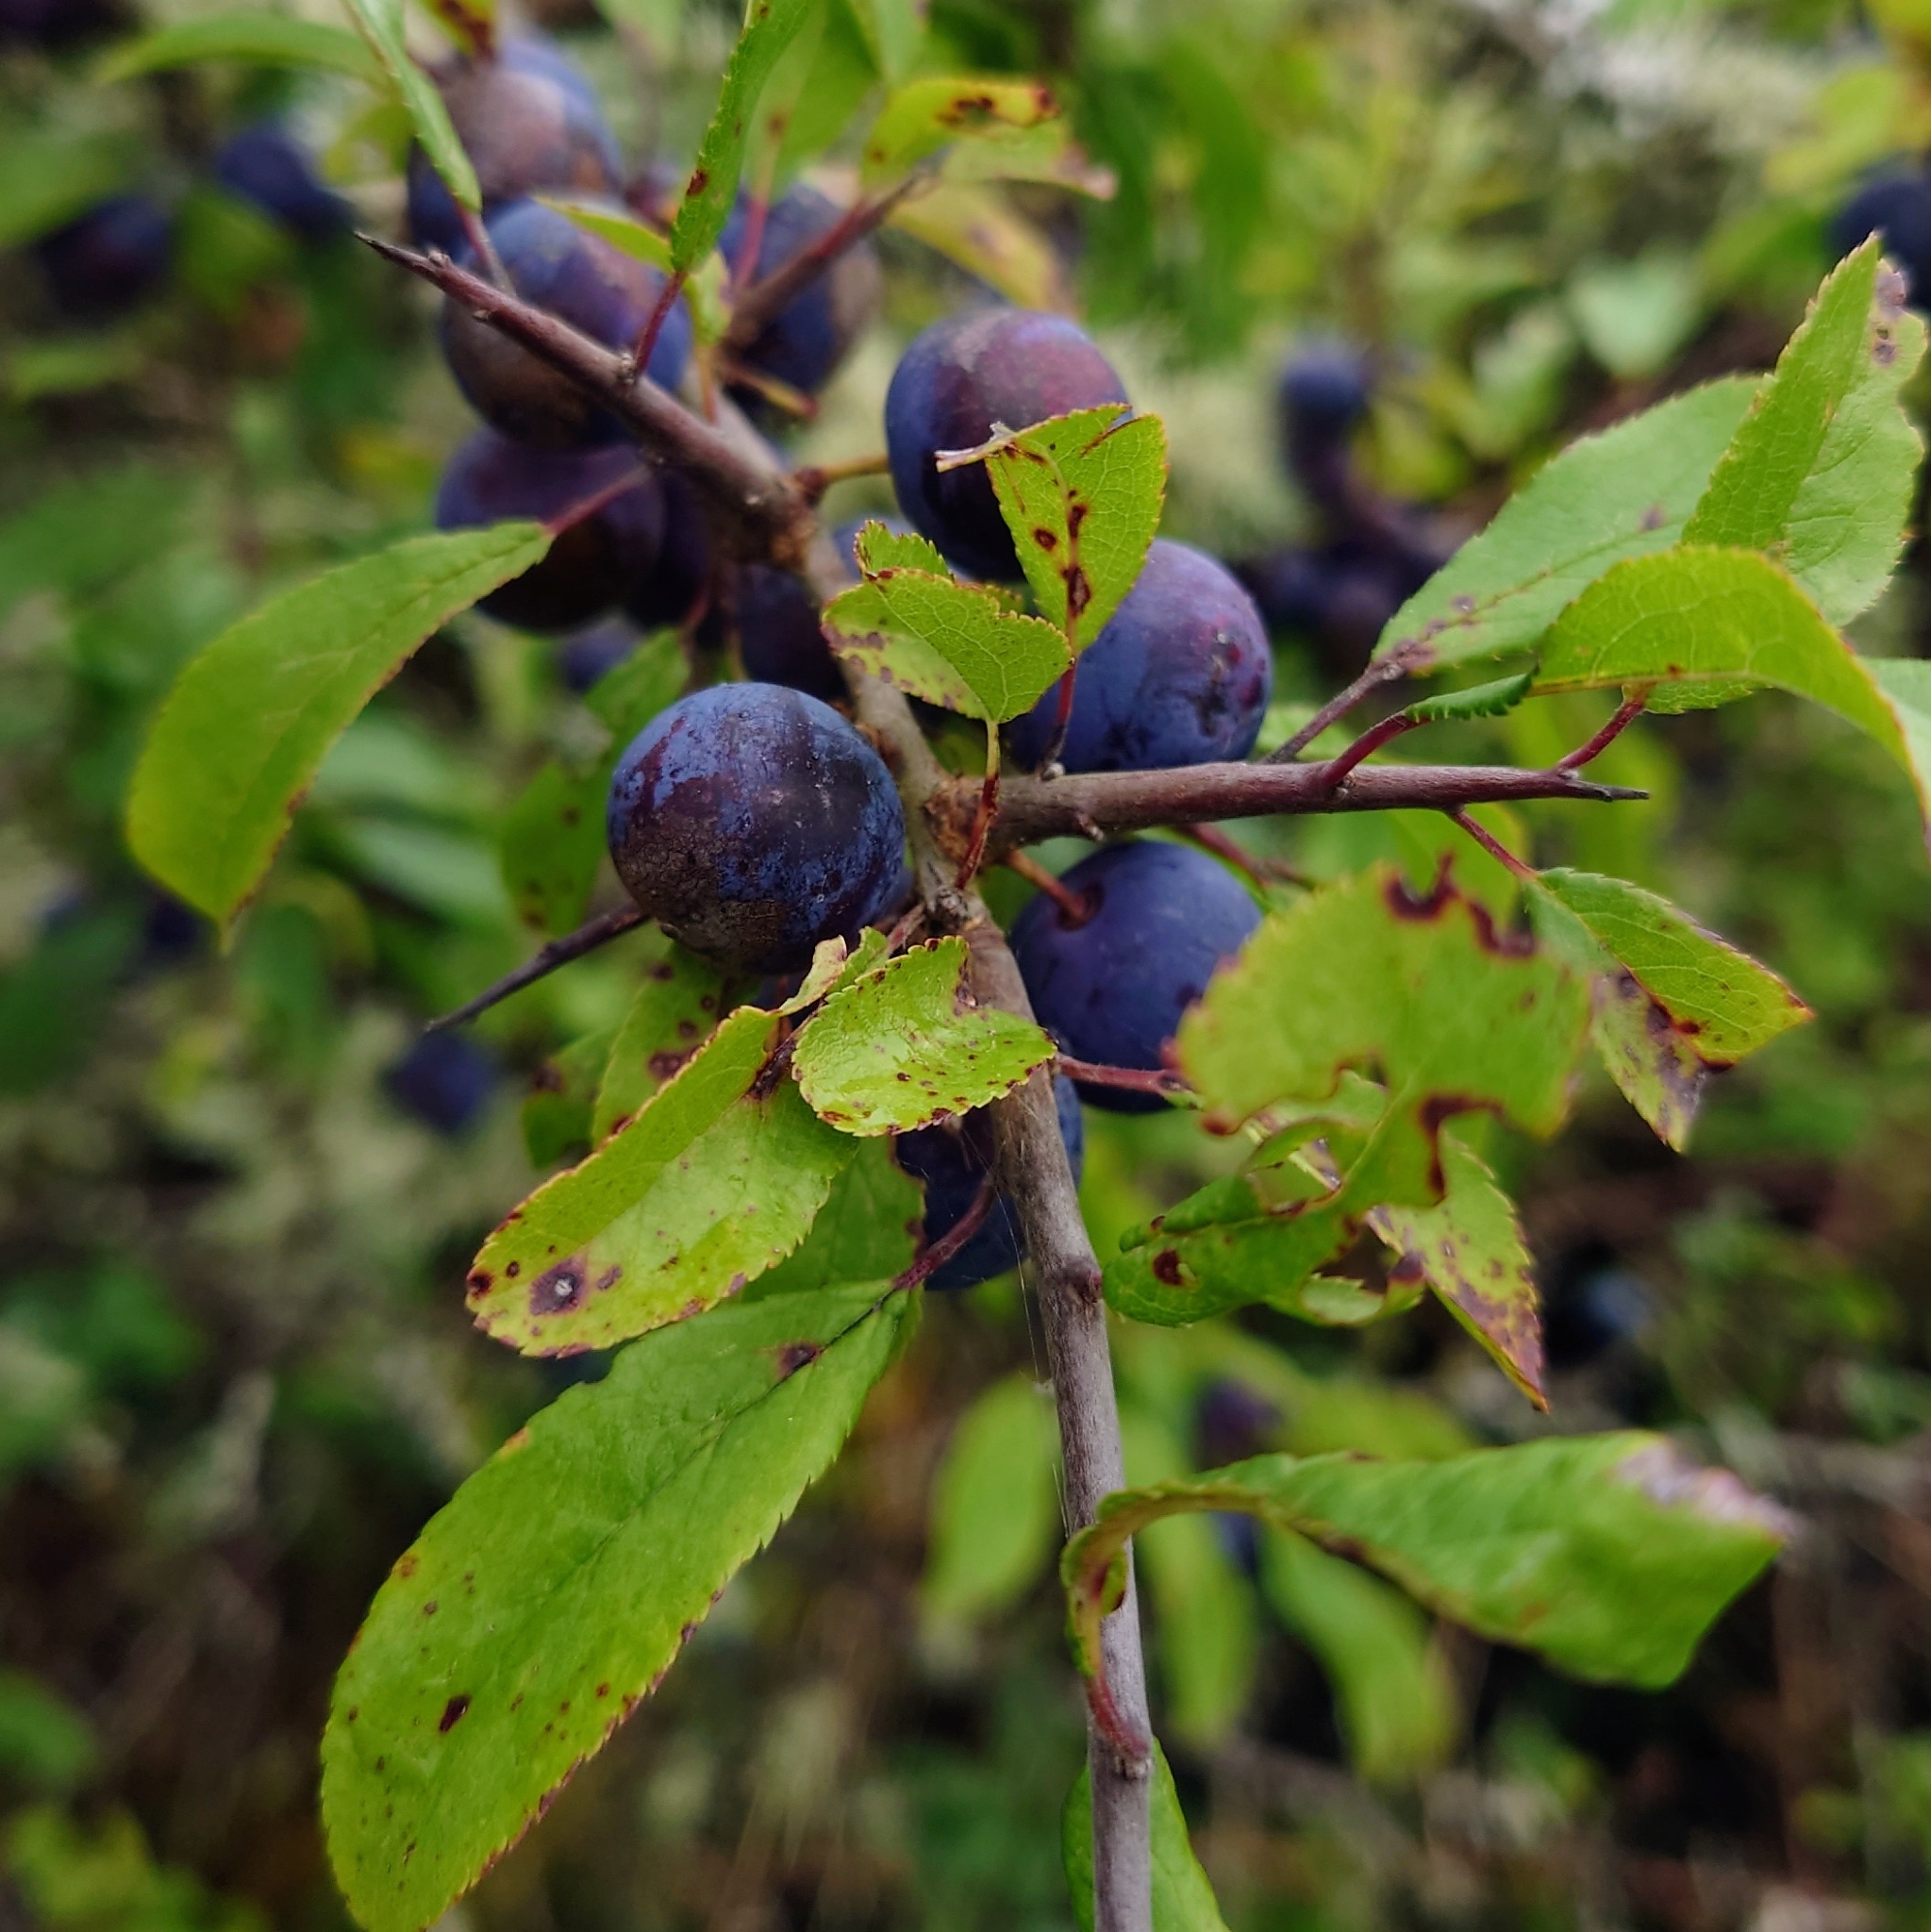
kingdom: Plantae
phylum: Tracheophyta
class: Magnoliopsida
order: Rosales
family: Rosaceae
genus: Prunus
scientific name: Prunus spinosa
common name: Blackthorn
